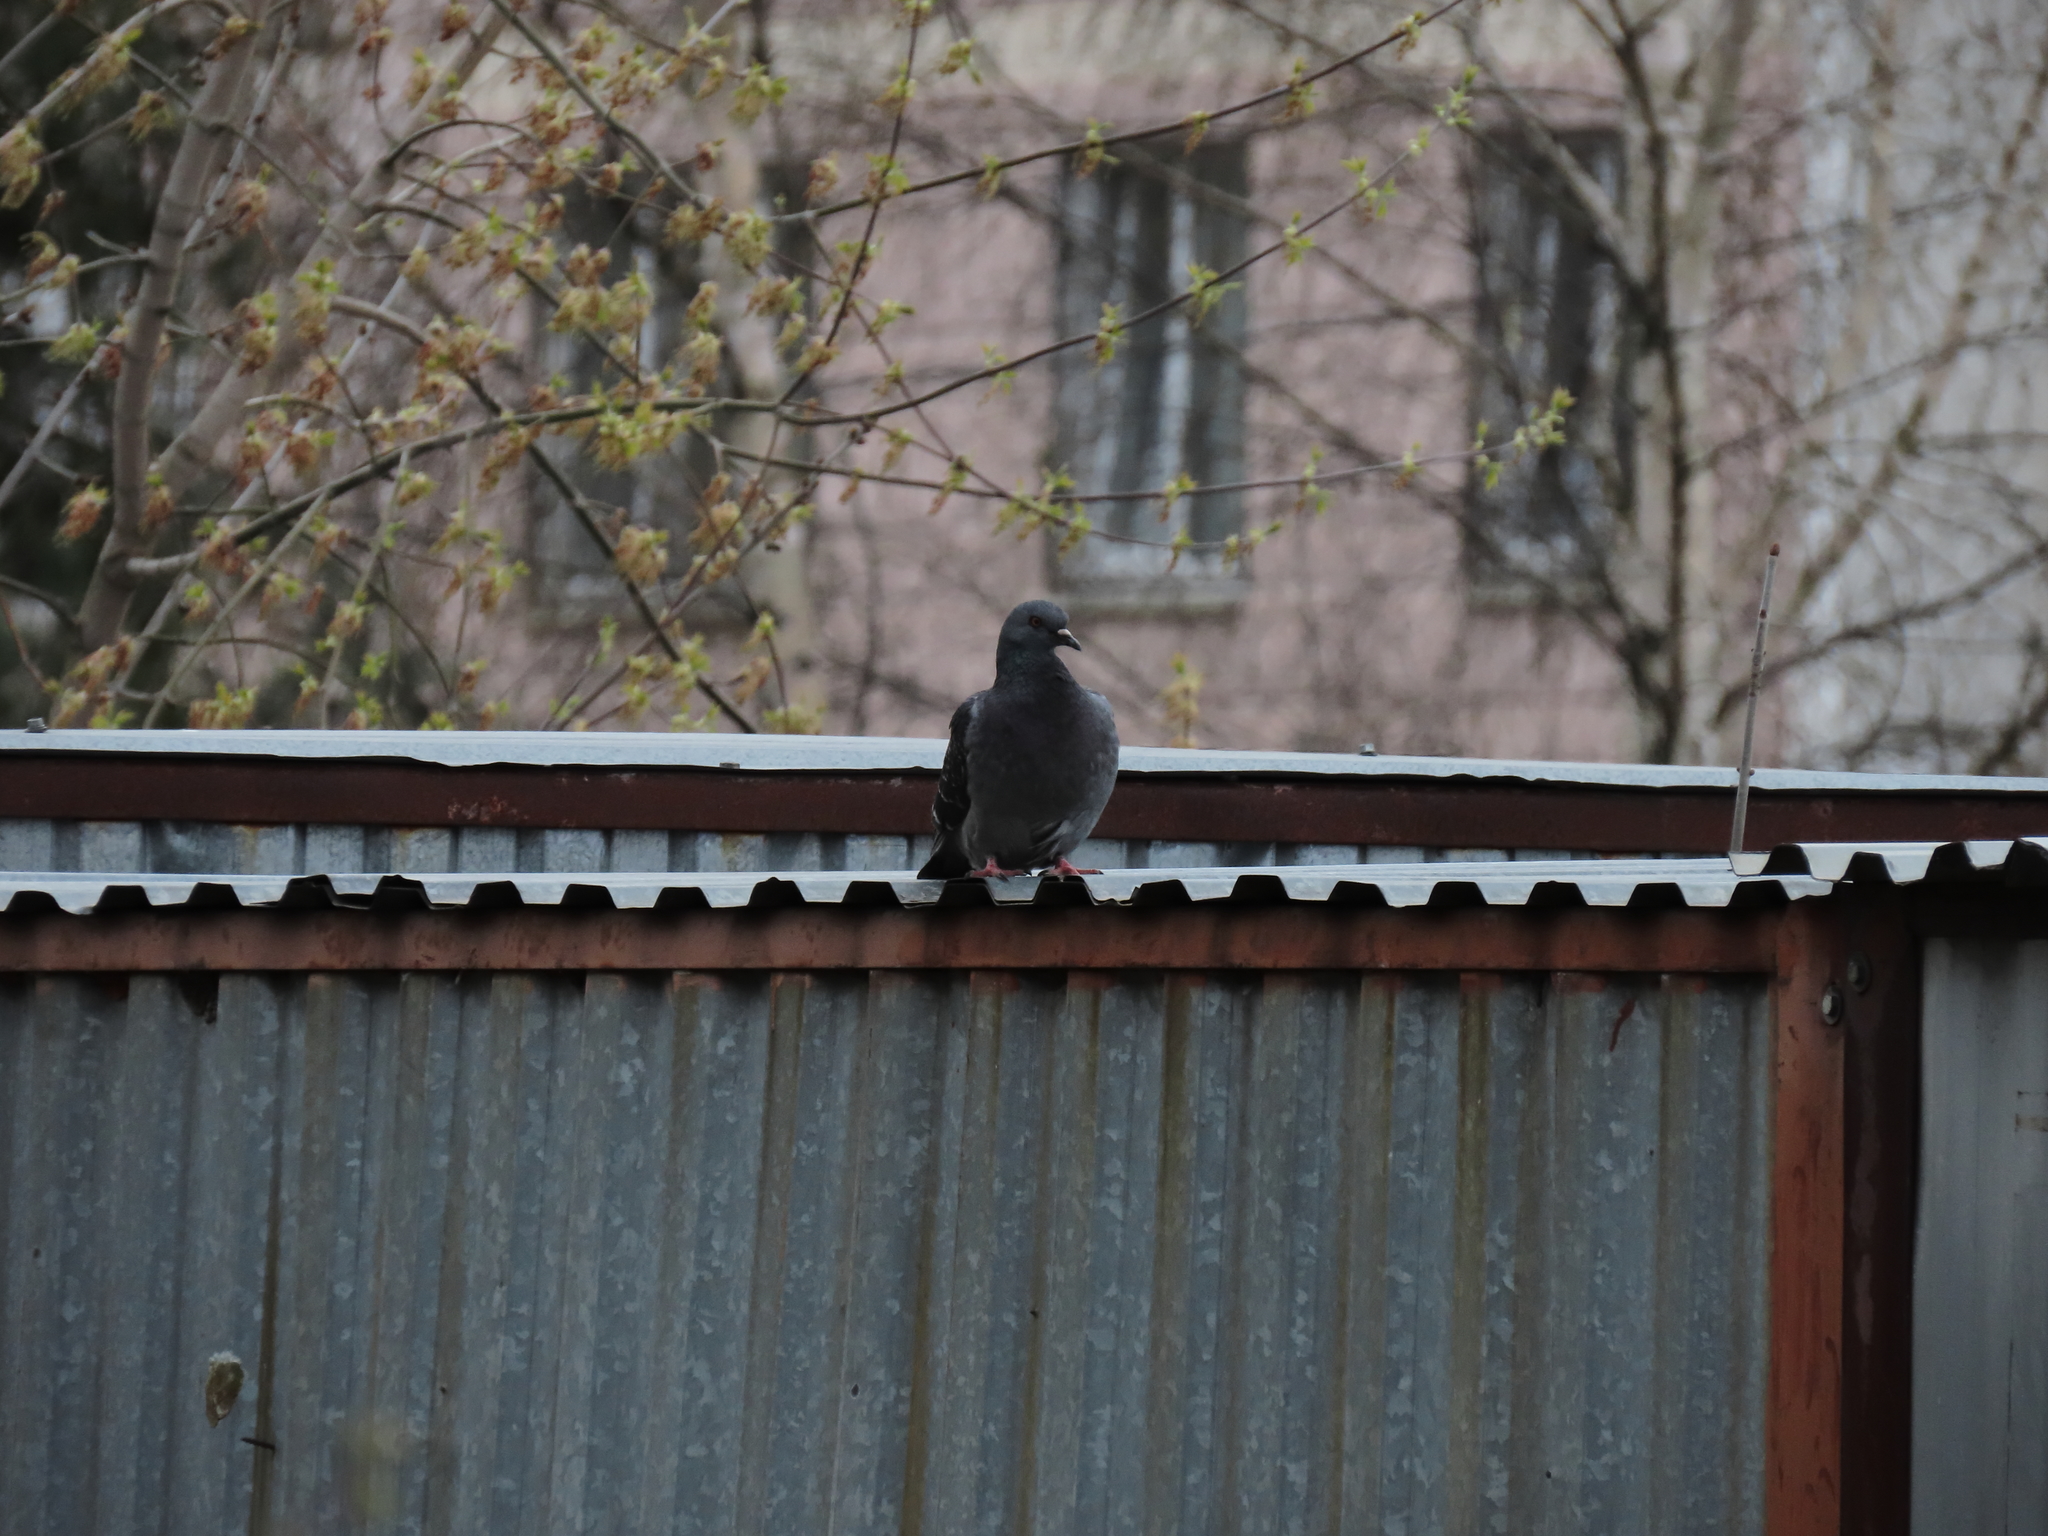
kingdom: Animalia
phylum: Chordata
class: Aves
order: Columbiformes
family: Columbidae
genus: Columba
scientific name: Columba livia
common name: Rock pigeon
